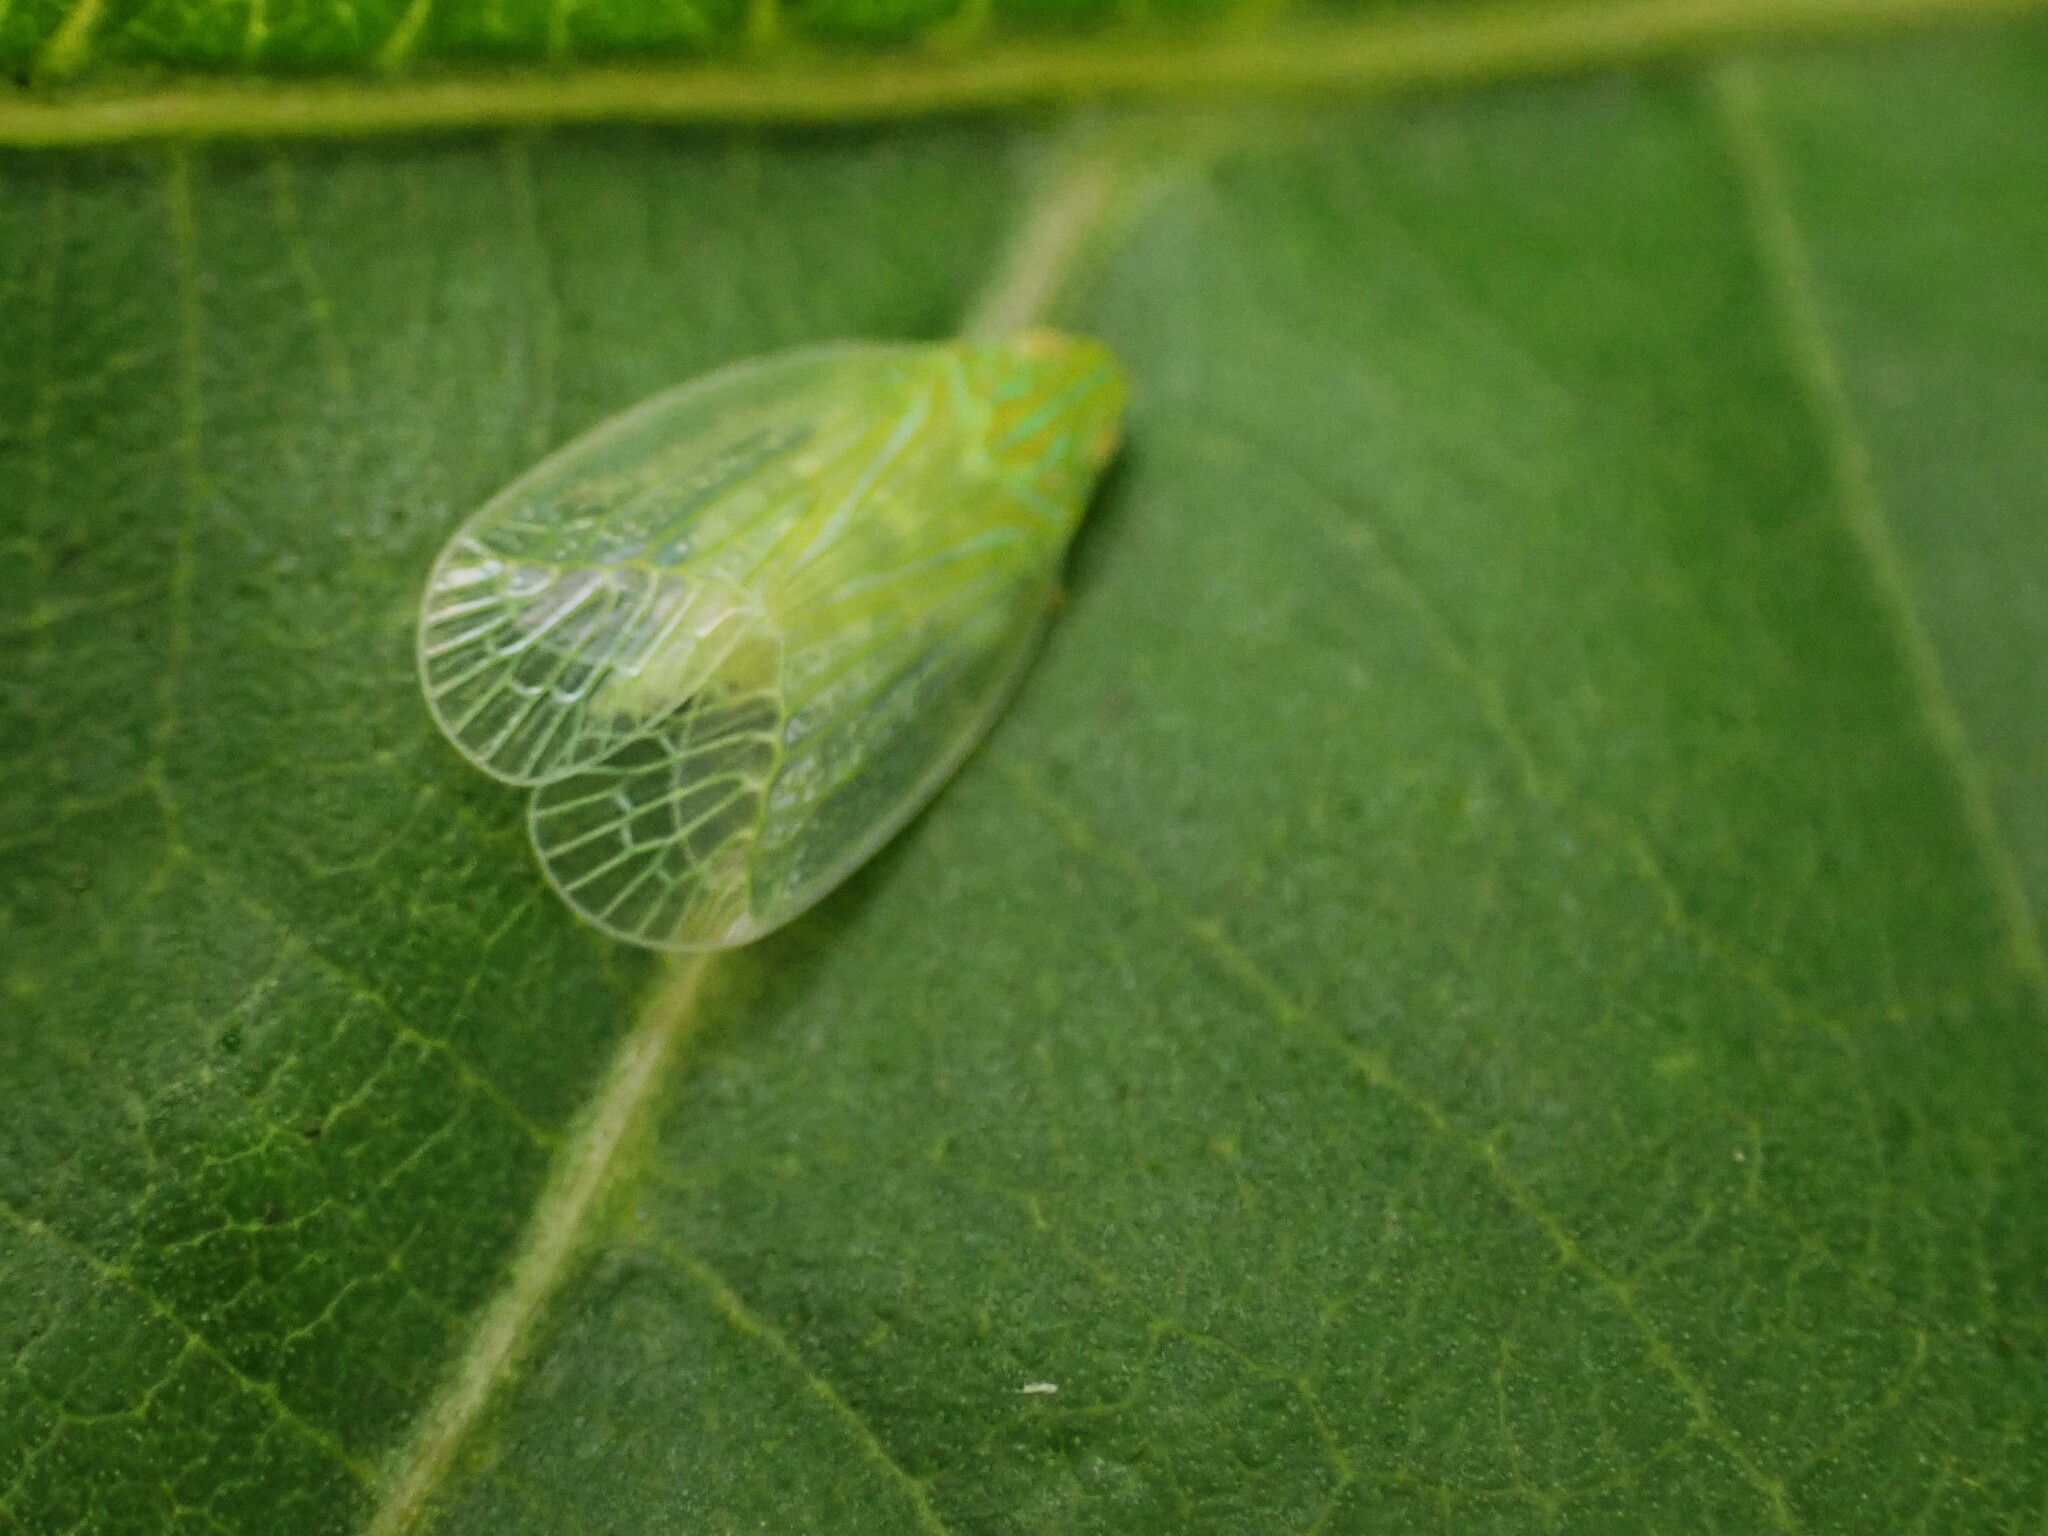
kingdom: Animalia
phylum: Arthropoda
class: Insecta
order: Hemiptera
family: Tropiduchidae
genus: Kallitaxila
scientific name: Kallitaxila granulata
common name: Planthopper
